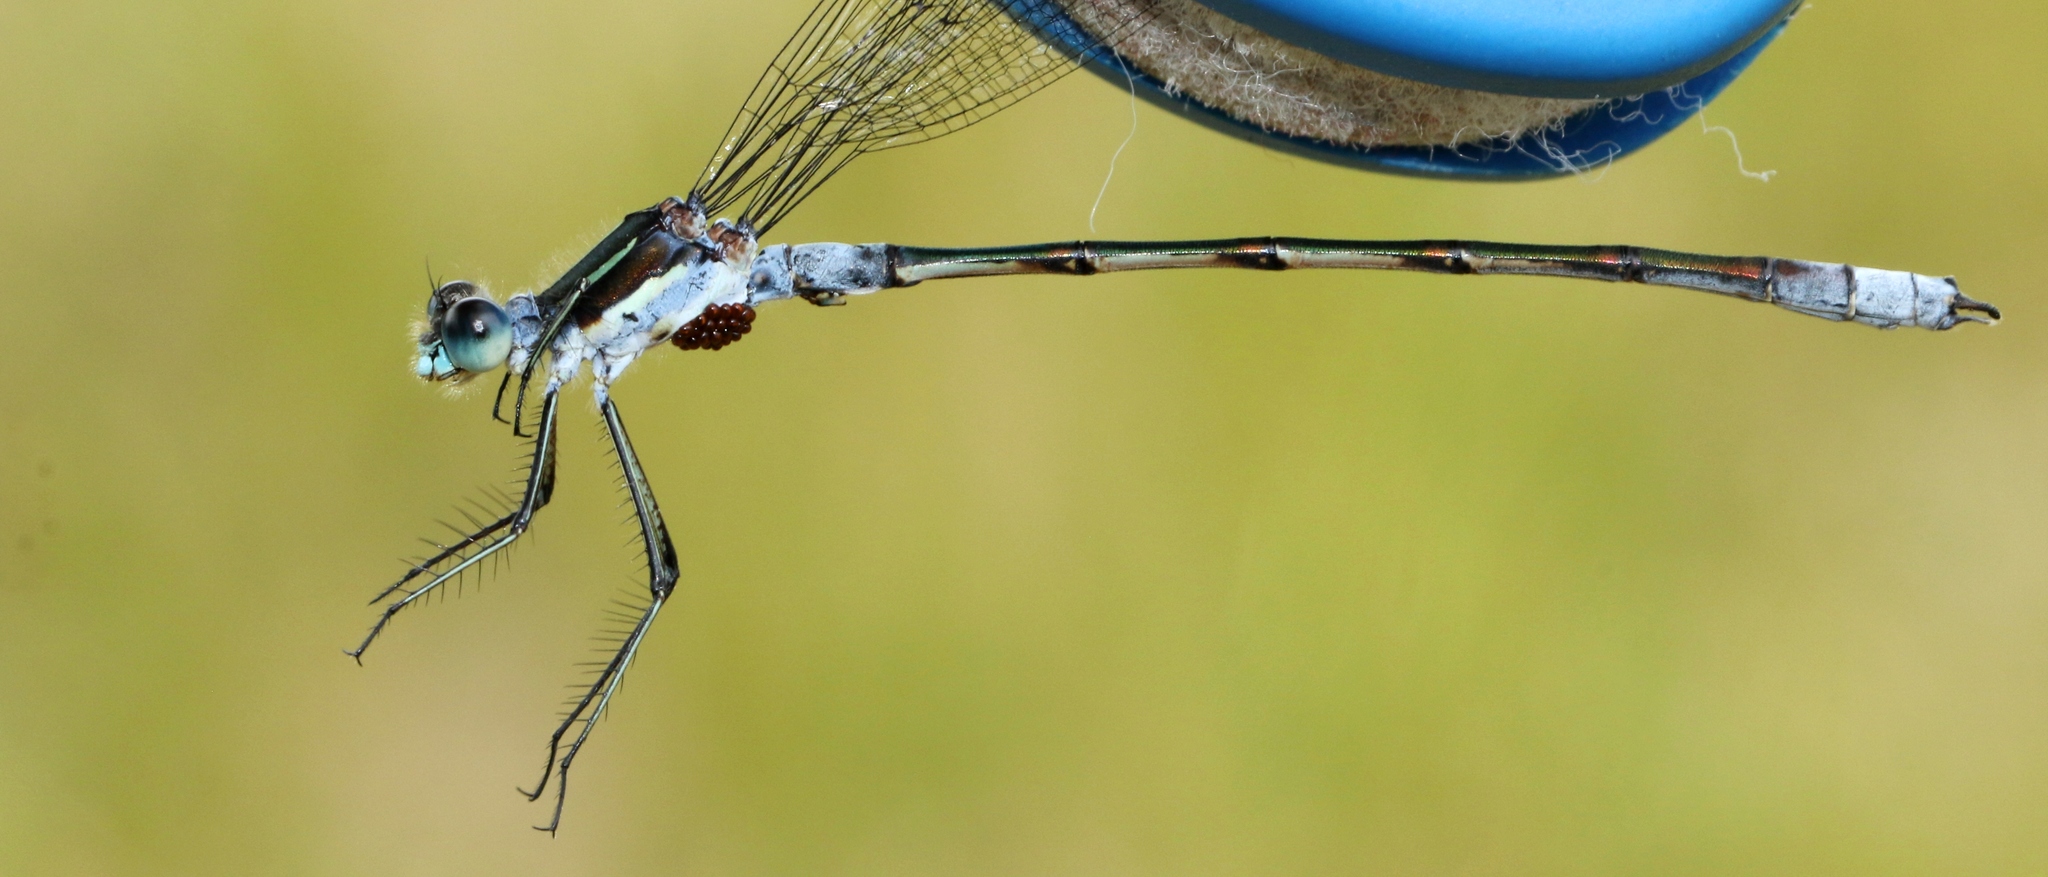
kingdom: Animalia
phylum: Arthropoda
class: Insecta
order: Odonata
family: Lestidae
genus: Lestes
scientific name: Lestes disjunctus
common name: Northern spreadwing
